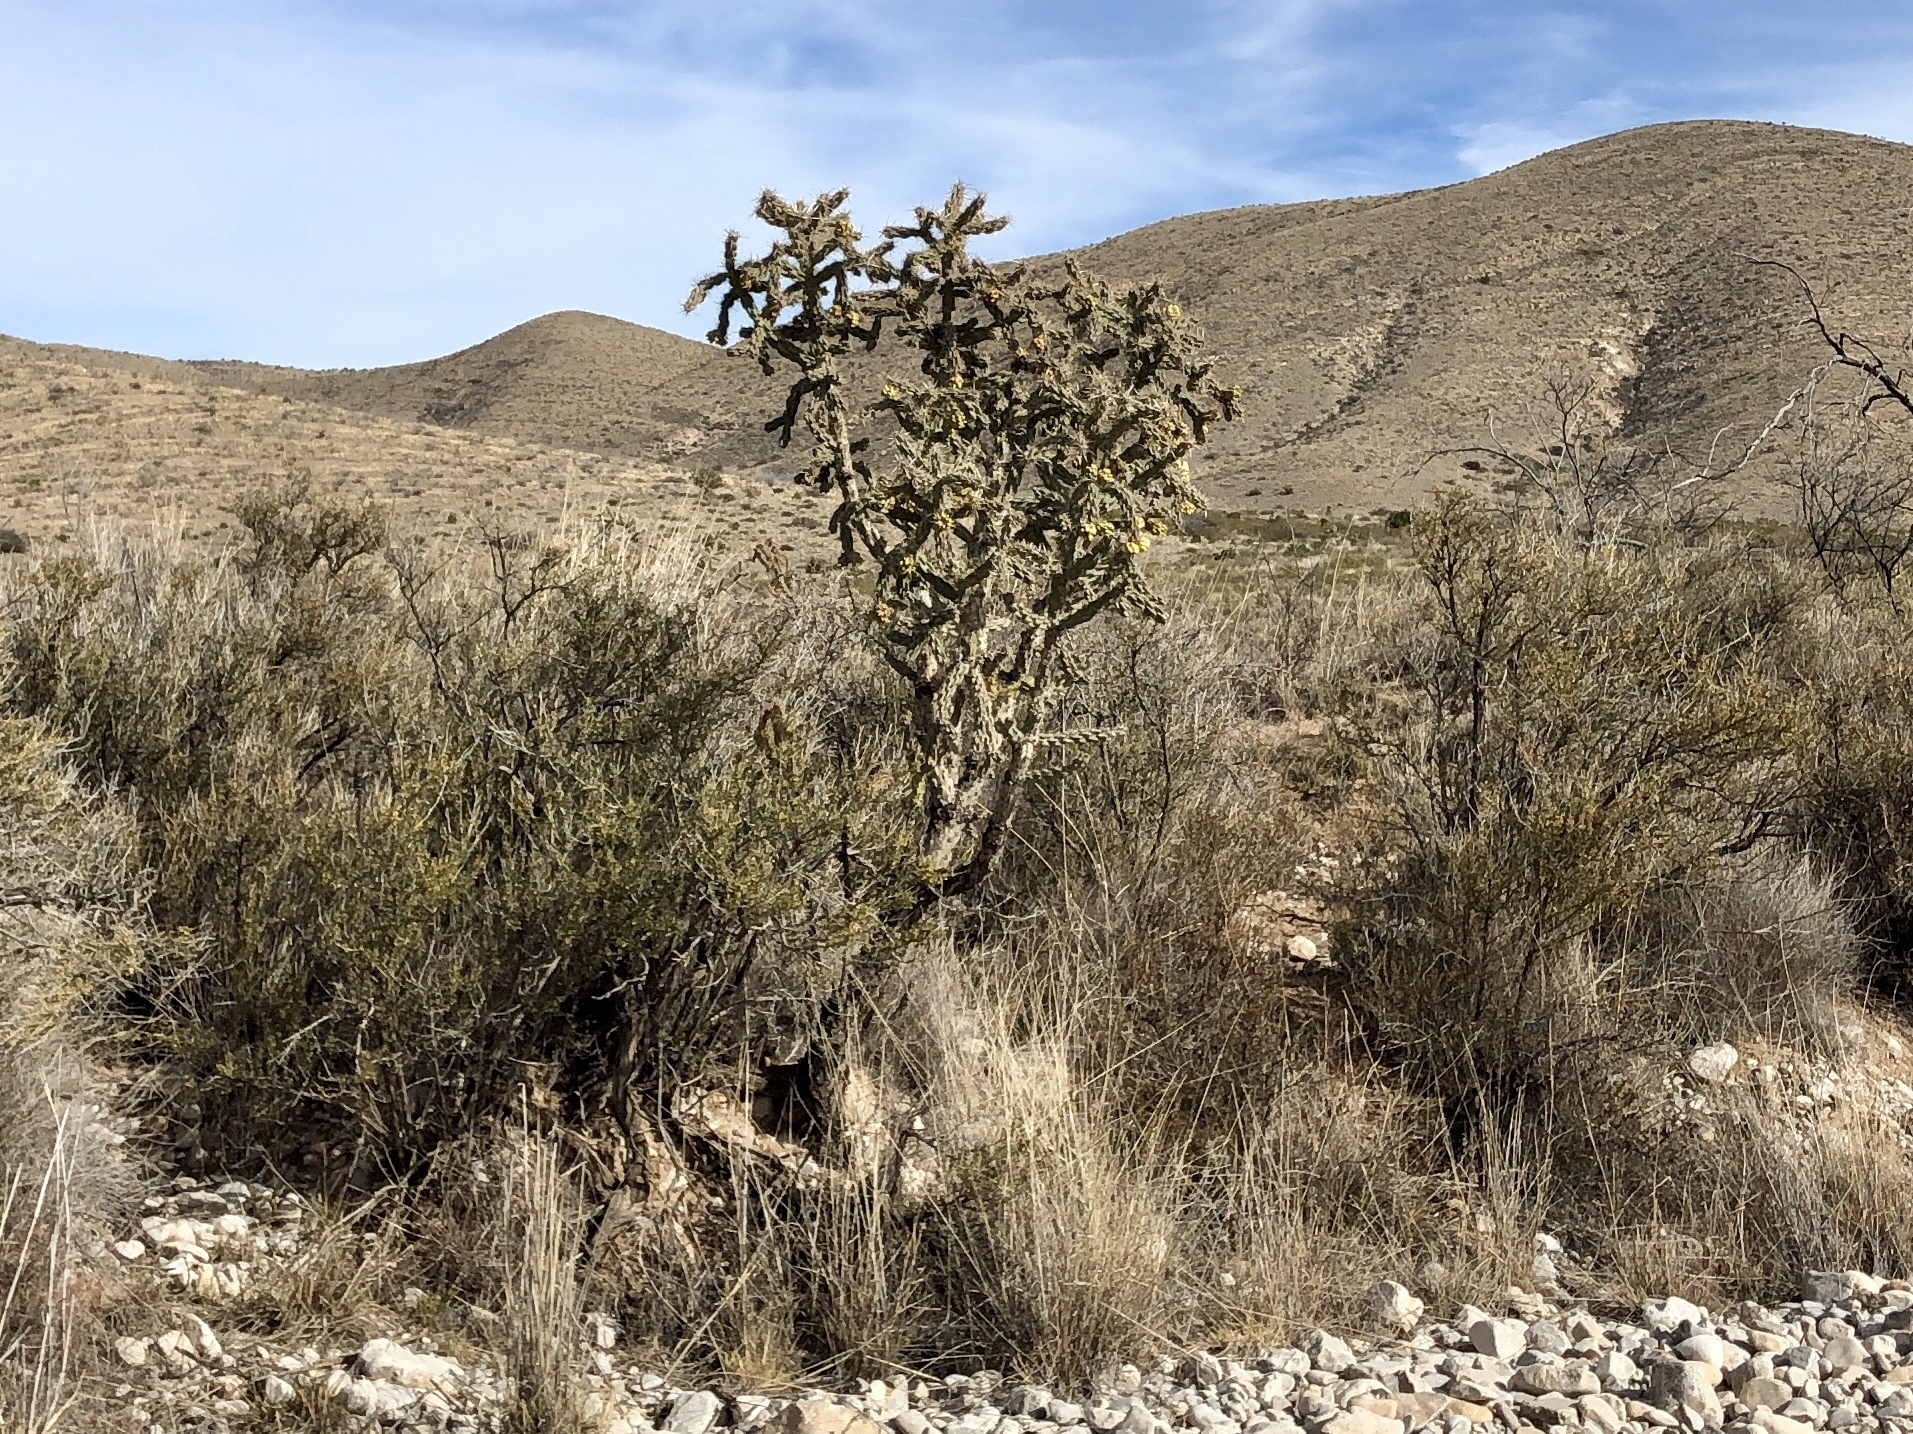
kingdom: Plantae
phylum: Tracheophyta
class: Magnoliopsida
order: Caryophyllales
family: Cactaceae
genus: Cylindropuntia
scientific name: Cylindropuntia imbricata
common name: Candelabrum cactus
